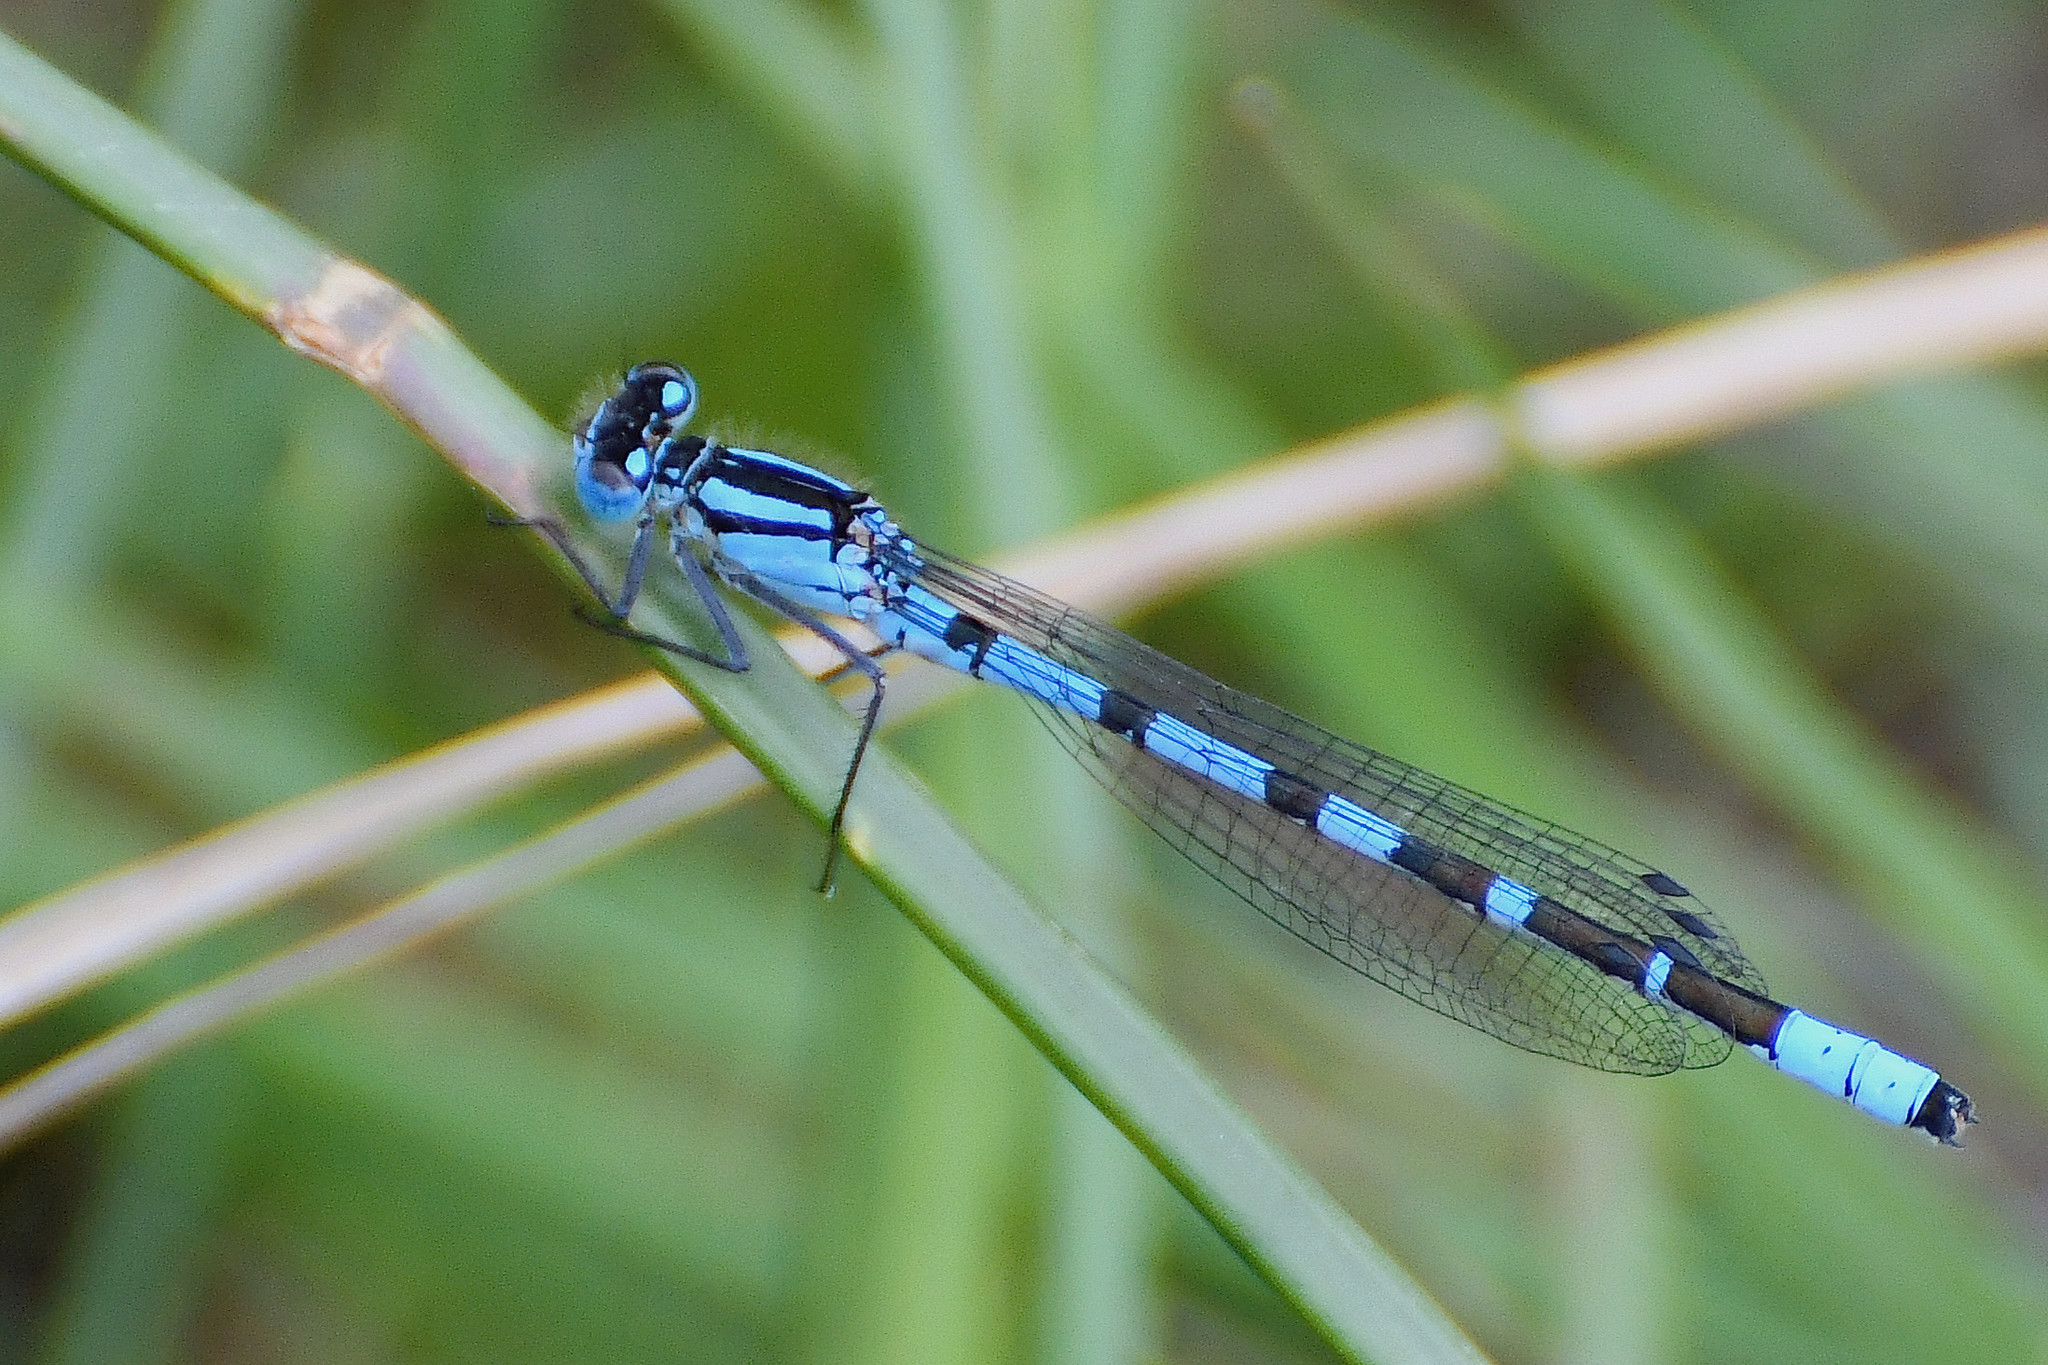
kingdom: Animalia
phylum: Arthropoda
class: Insecta
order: Odonata
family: Coenagrionidae
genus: Enallagma
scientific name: Enallagma cyathigerum
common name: Common blue damselfly
